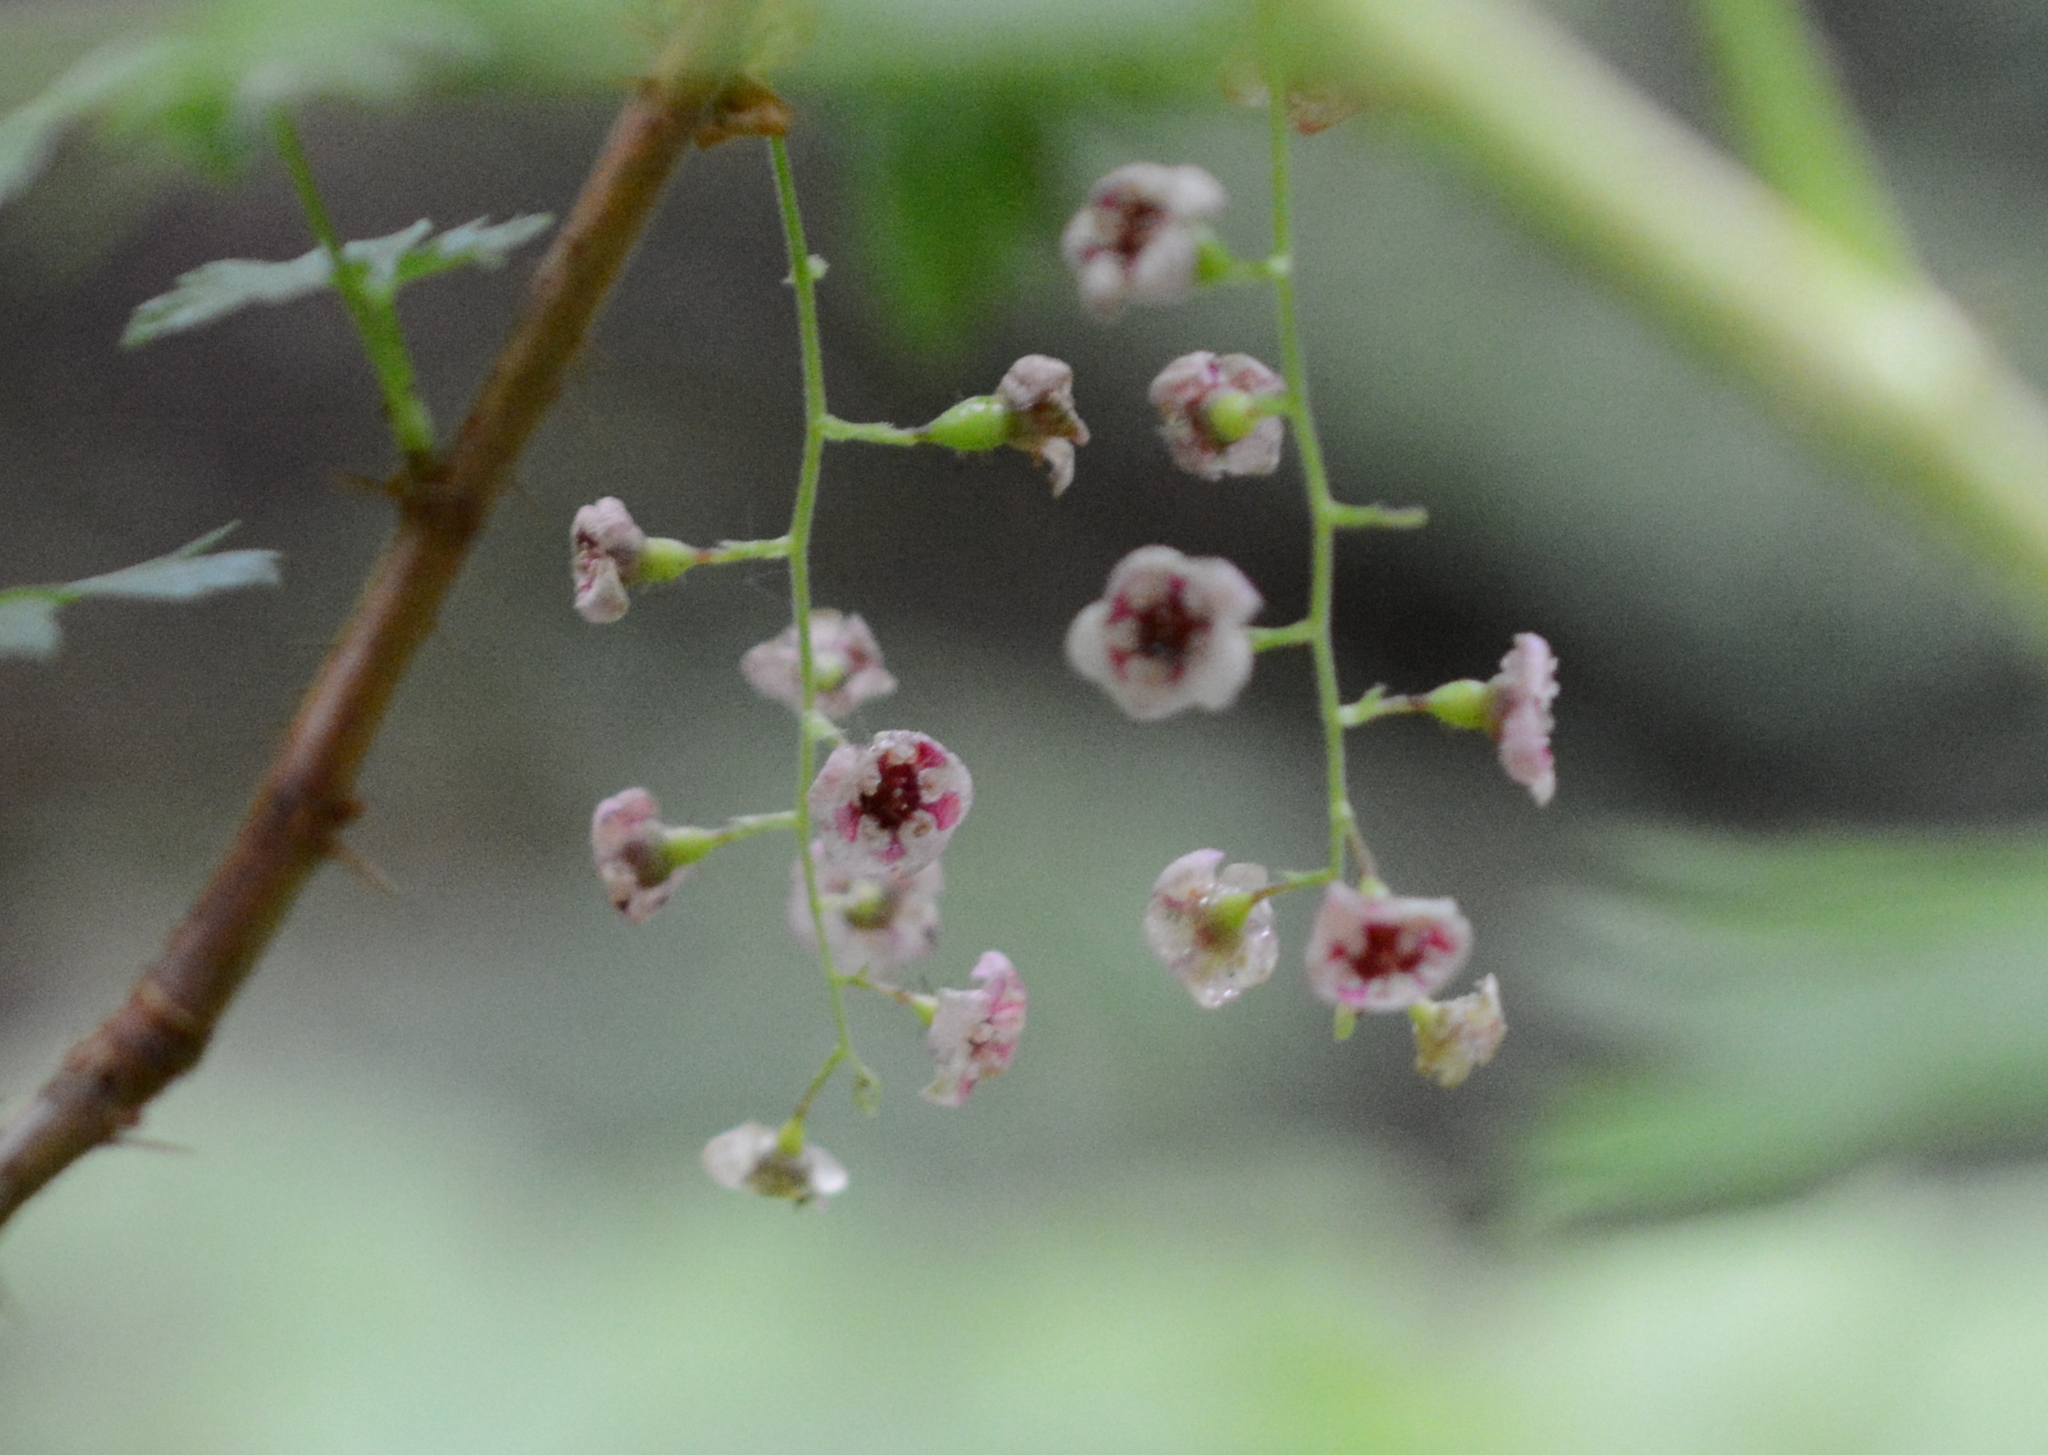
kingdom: Plantae
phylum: Tracheophyta
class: Magnoliopsida
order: Saxifragales
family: Grossulariaceae
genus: Ribes
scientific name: Ribes lacustre
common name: Black gooseberry
